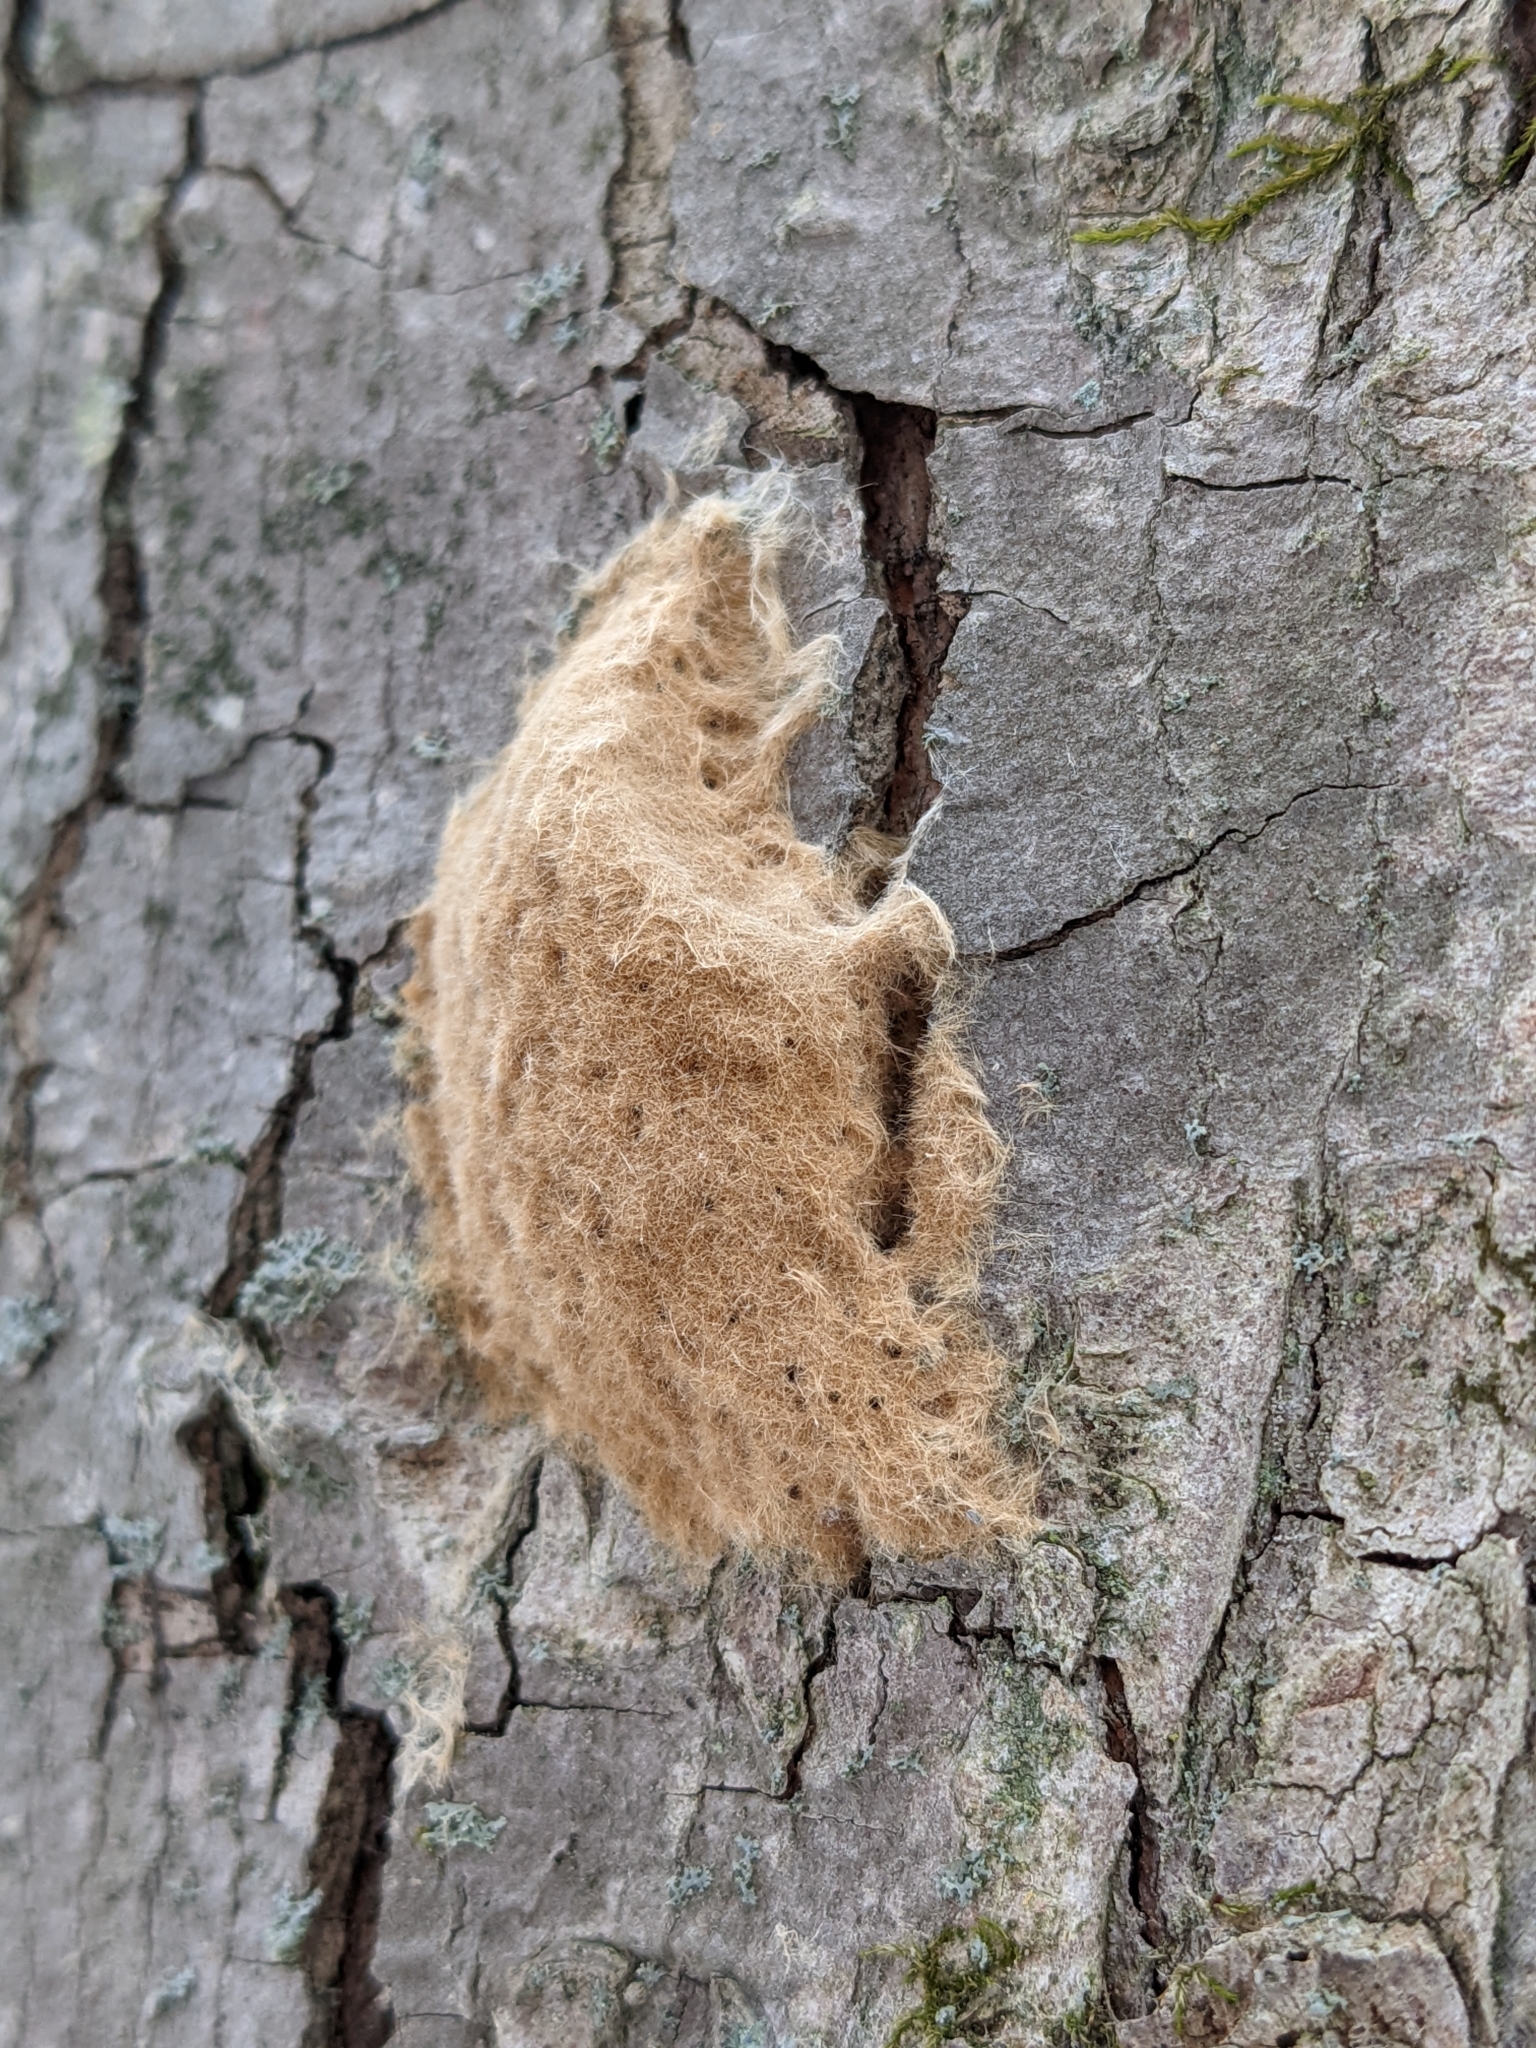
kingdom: Animalia
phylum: Arthropoda
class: Insecta
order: Lepidoptera
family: Erebidae
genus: Lymantria
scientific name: Lymantria dispar
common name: Gypsy moth
